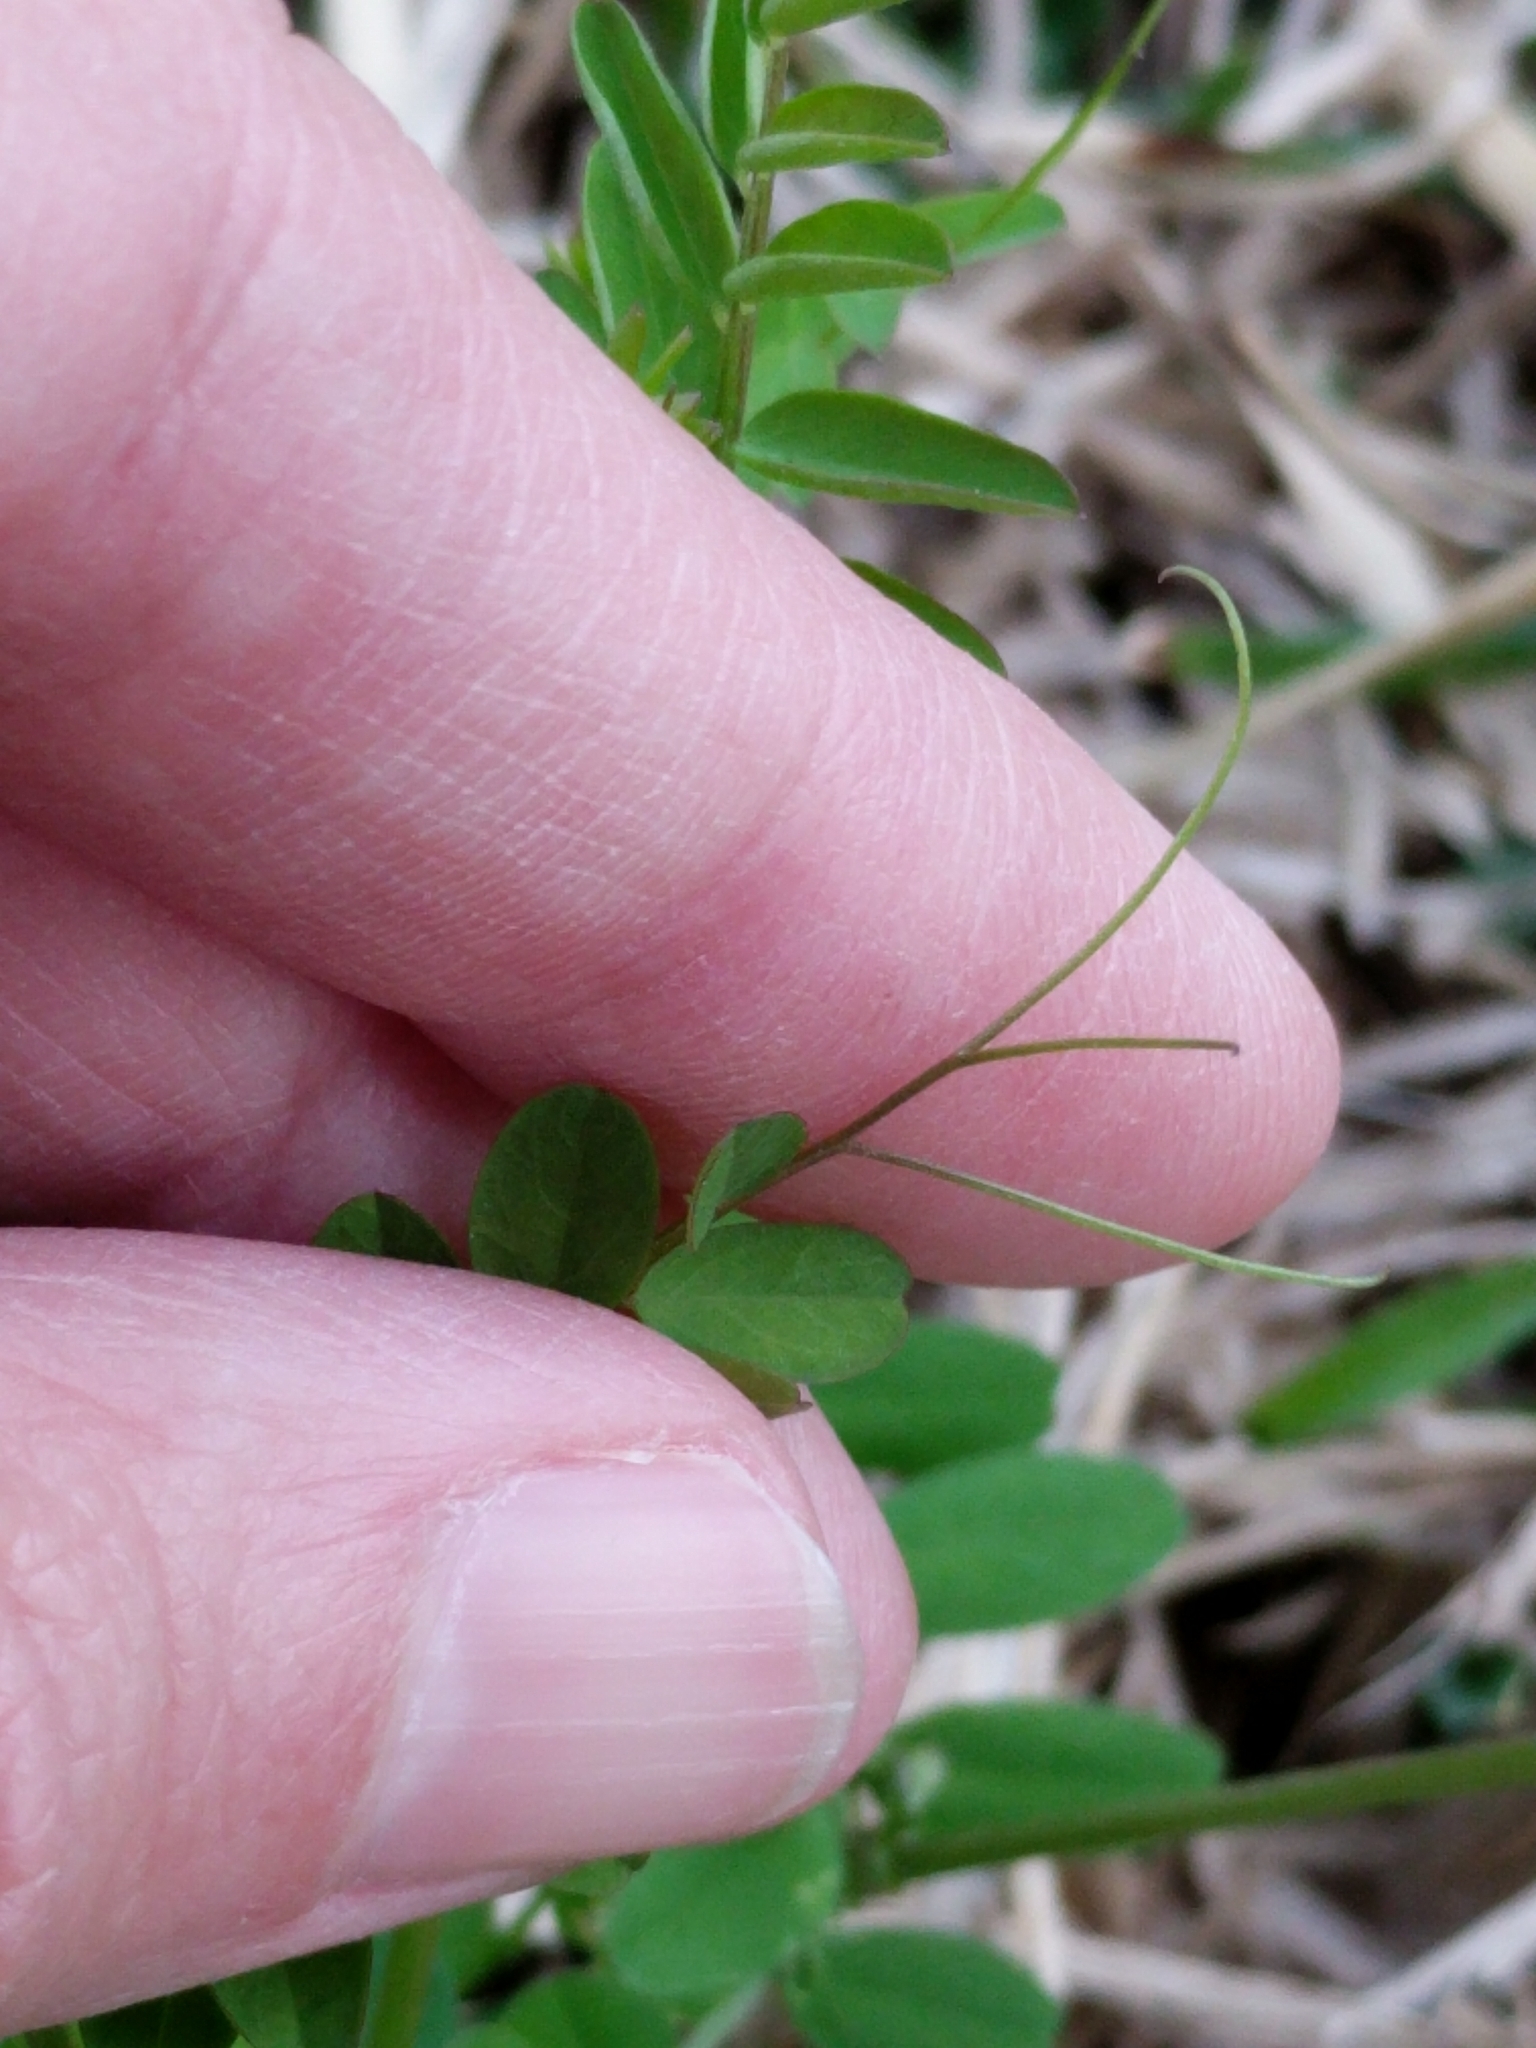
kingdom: Plantae
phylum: Tracheophyta
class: Magnoliopsida
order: Fabales
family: Fabaceae
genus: Vicia
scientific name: Vicia ludoviciana
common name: Louisiana vetch
